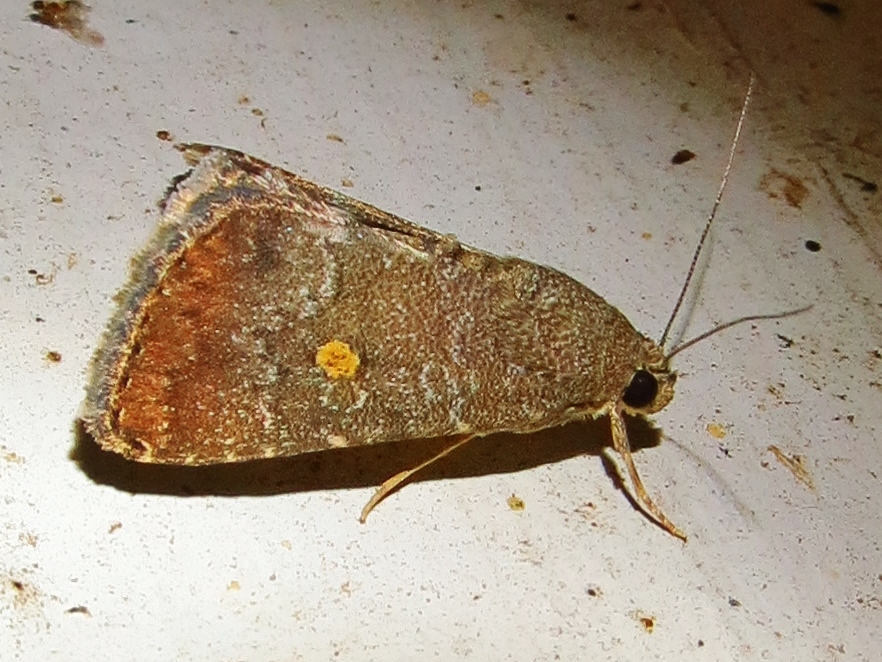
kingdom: Animalia
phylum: Arthropoda
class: Insecta
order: Lepidoptera
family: Noctuidae
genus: Amyna
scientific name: Amyna stricta
